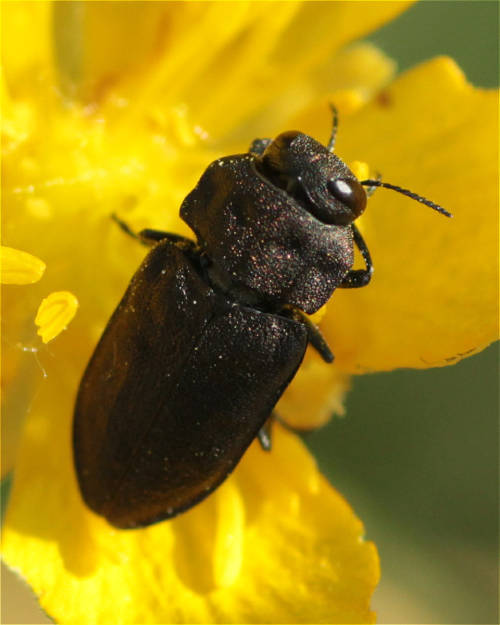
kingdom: Animalia
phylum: Arthropoda
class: Insecta
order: Coleoptera
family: Buprestidae
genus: Anthaxia
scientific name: Anthaxia quadripunctata
